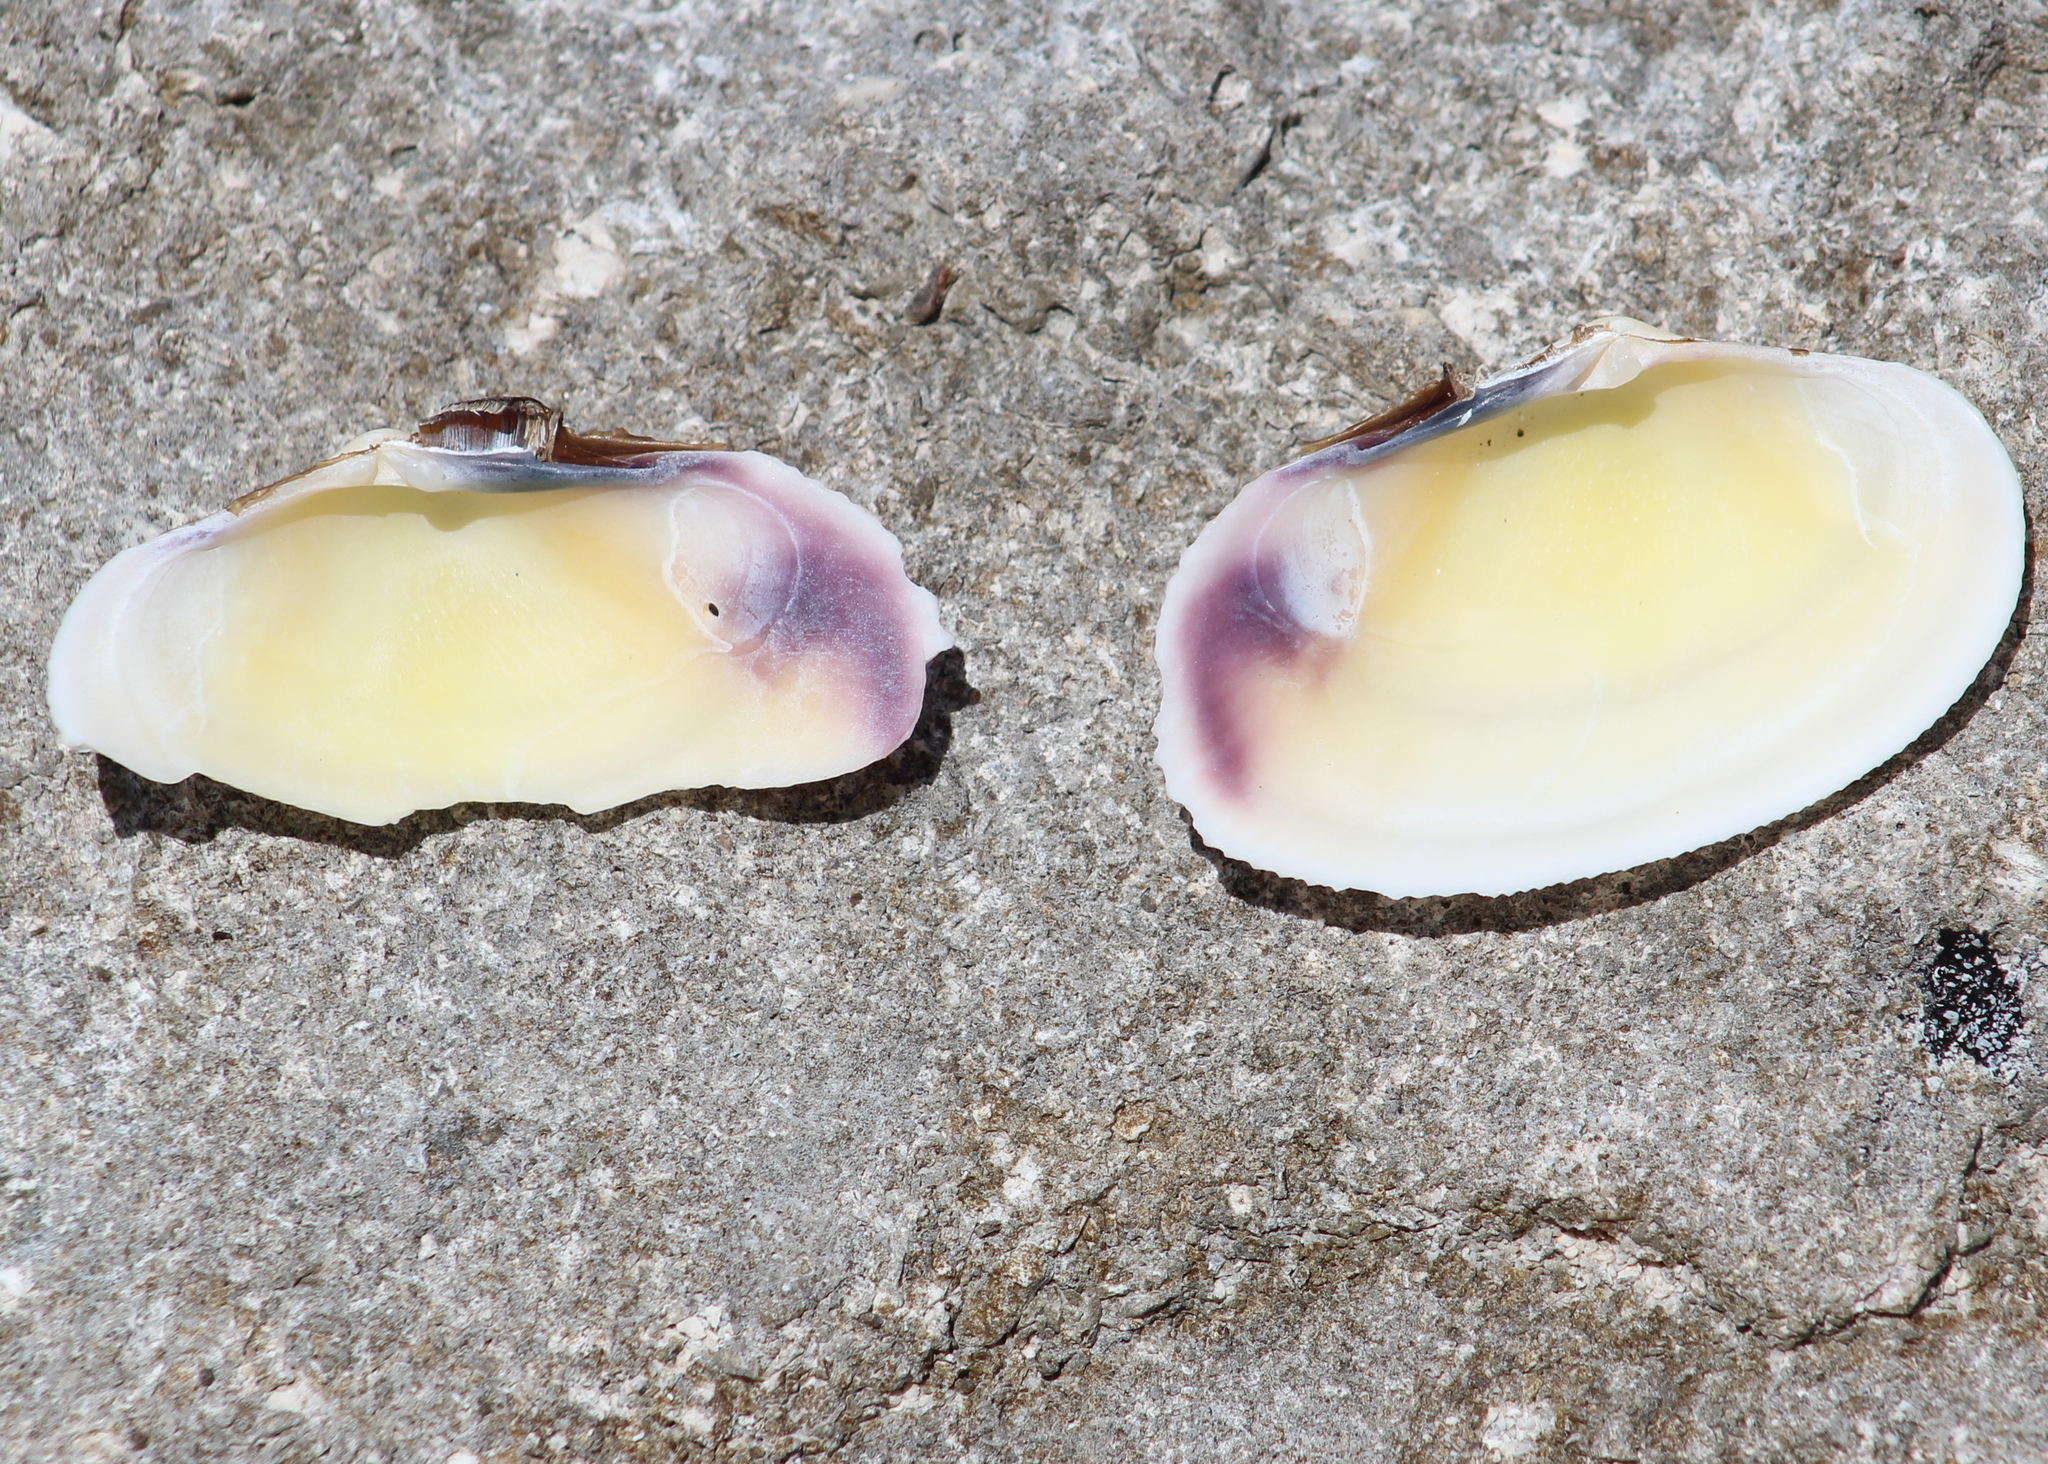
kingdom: Animalia
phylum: Mollusca
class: Bivalvia
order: Cardiida
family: Psammobiidae
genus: Asaphis
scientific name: Asaphis violascens
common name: Pacific asaphis
